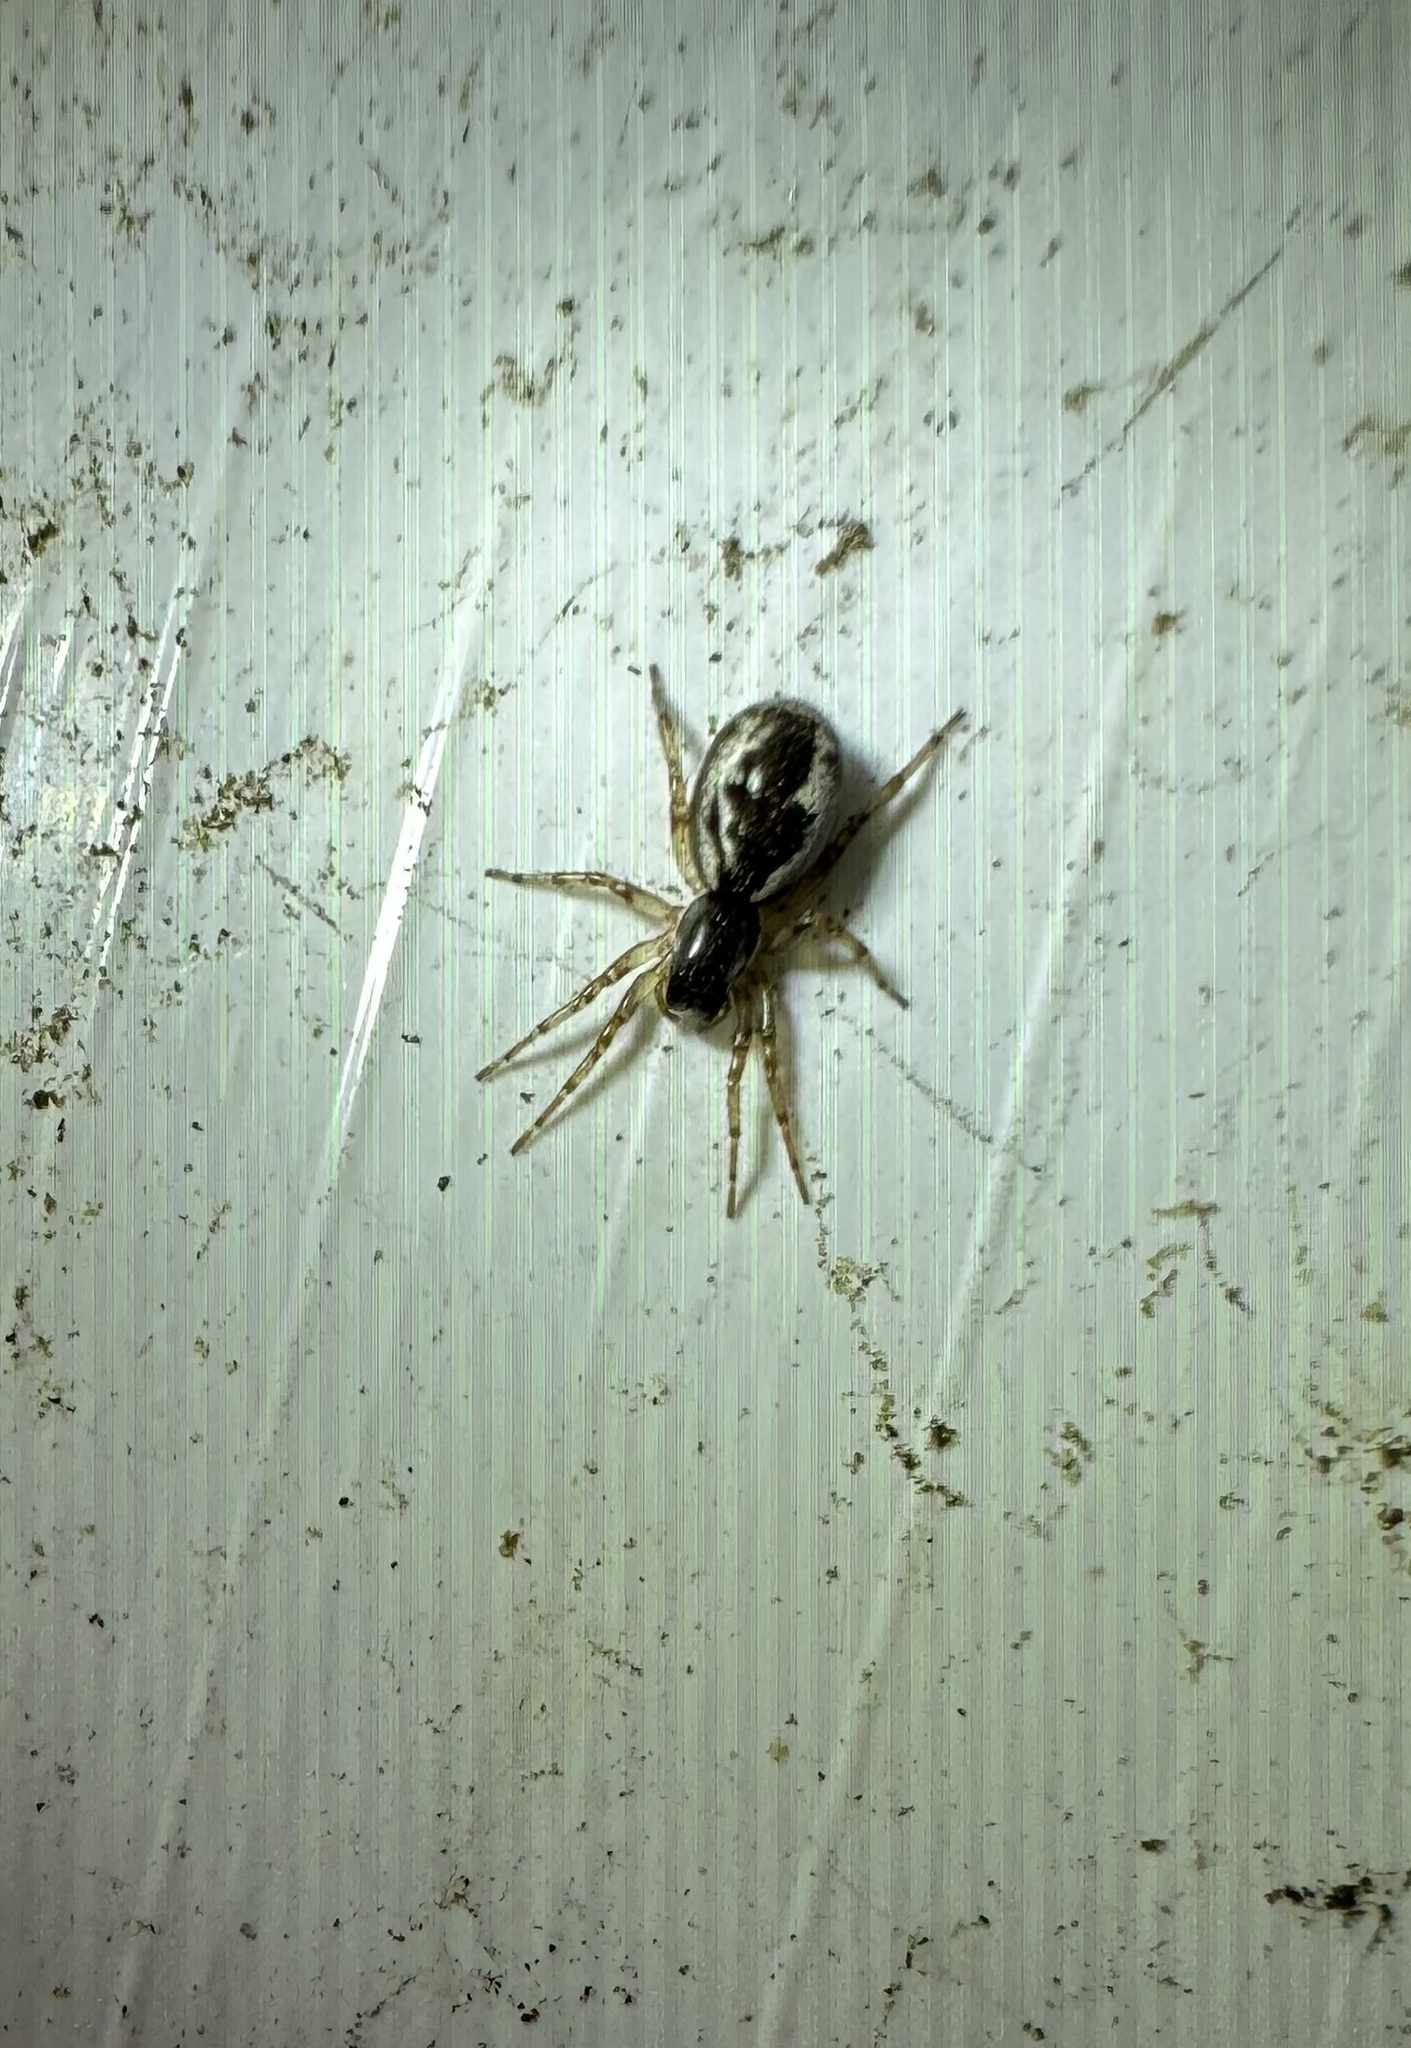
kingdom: Animalia
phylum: Arthropoda
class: Arachnida
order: Araneae
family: Anyphaenidae
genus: Philisca
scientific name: Philisca atrata
